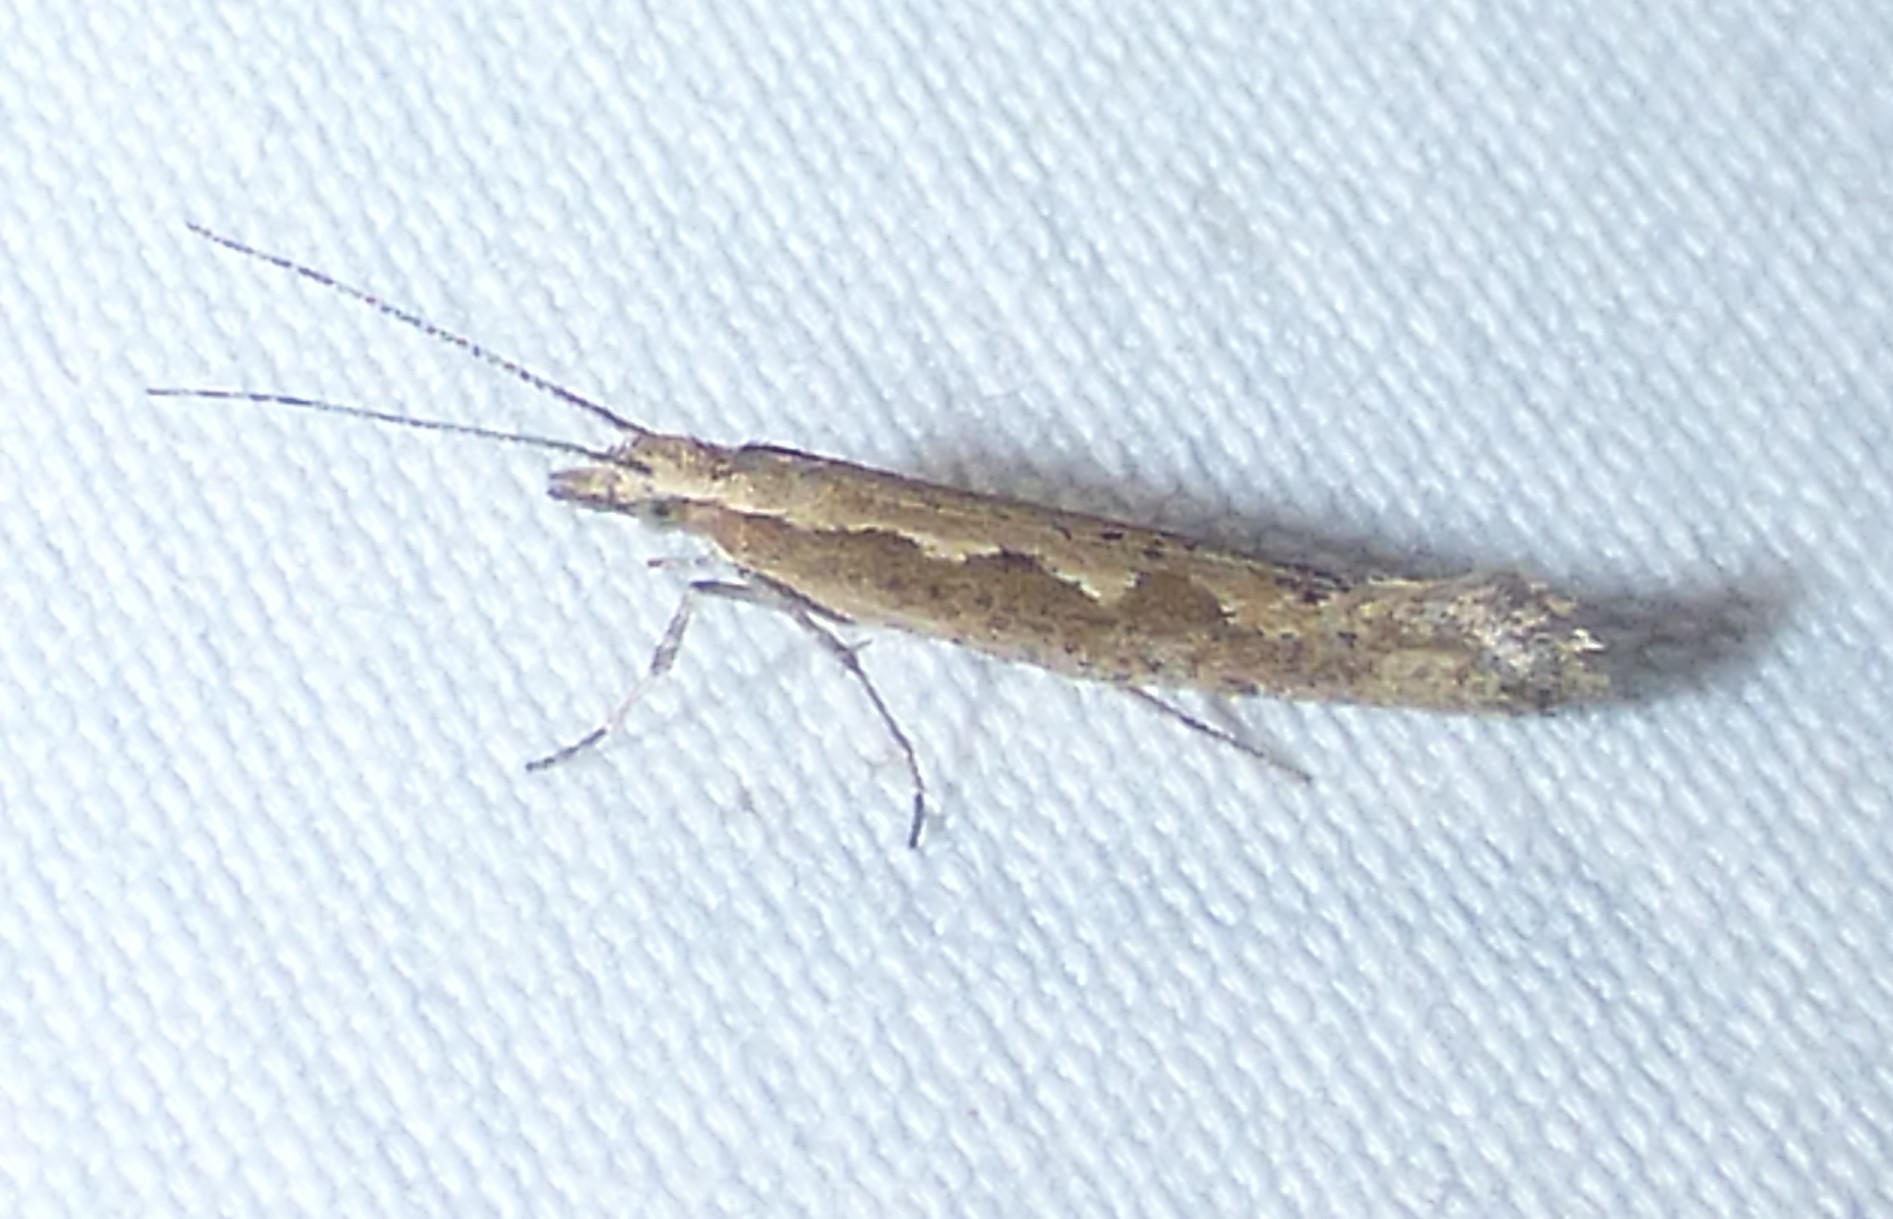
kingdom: Animalia
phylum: Arthropoda
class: Insecta
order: Lepidoptera
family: Plutellidae
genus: Plutella
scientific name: Plutella xylostella
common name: Diamond-back moth
